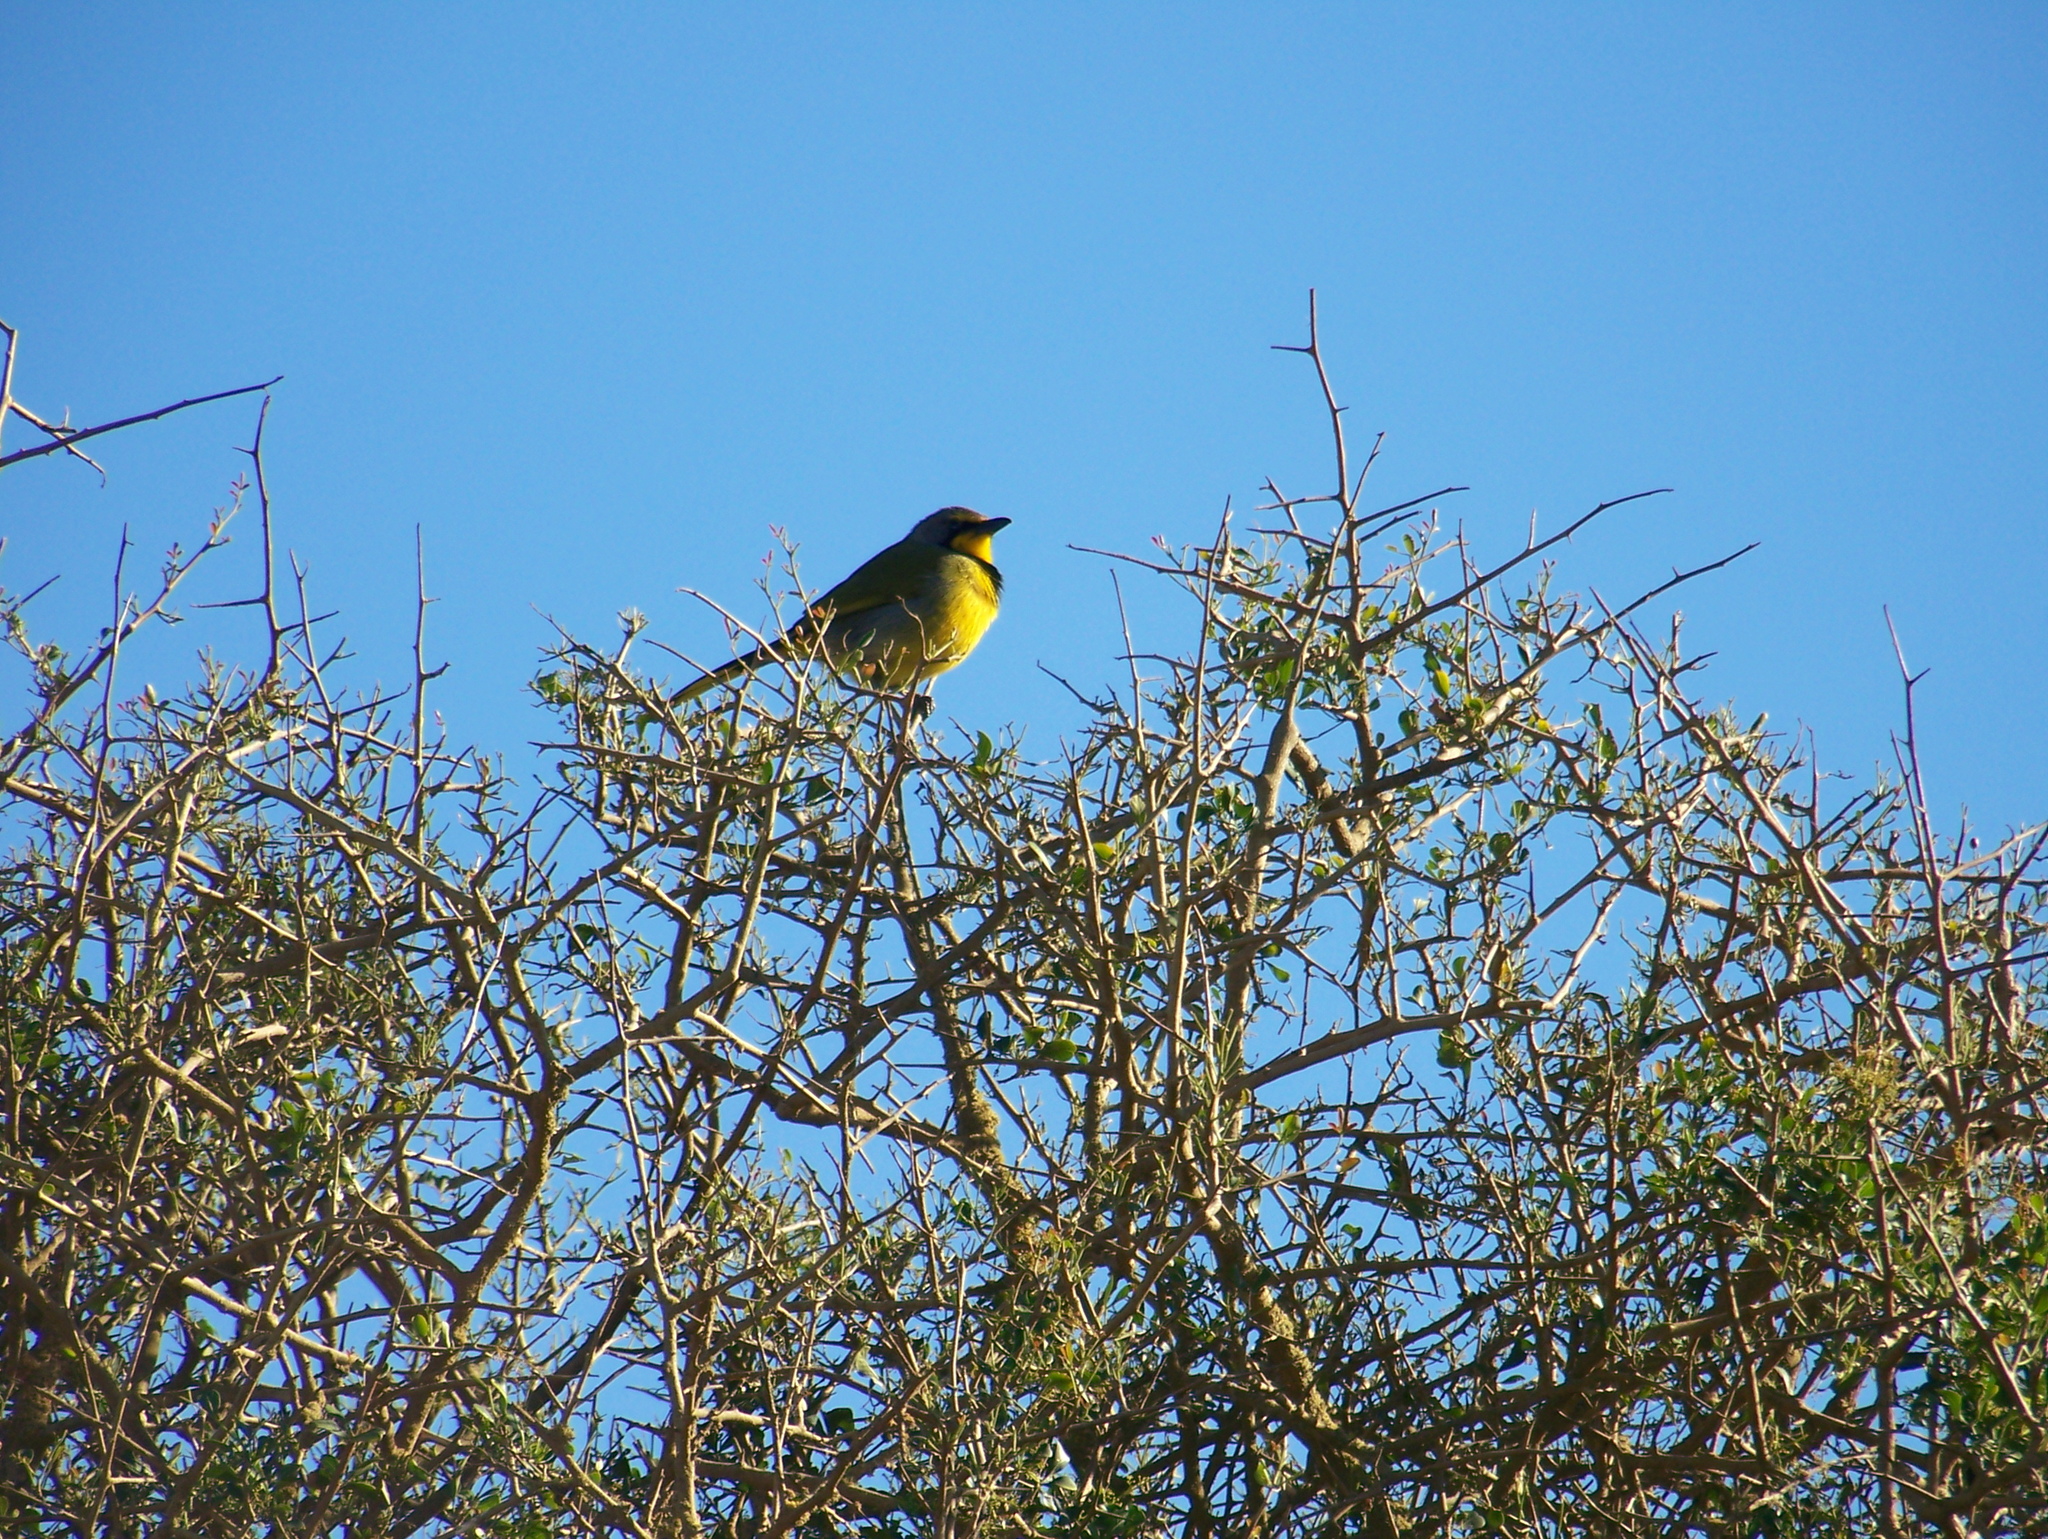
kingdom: Animalia
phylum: Chordata
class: Aves
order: Passeriformes
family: Malaconotidae
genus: Telophorus
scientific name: Telophorus zeylonus
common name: Bokmakierie
